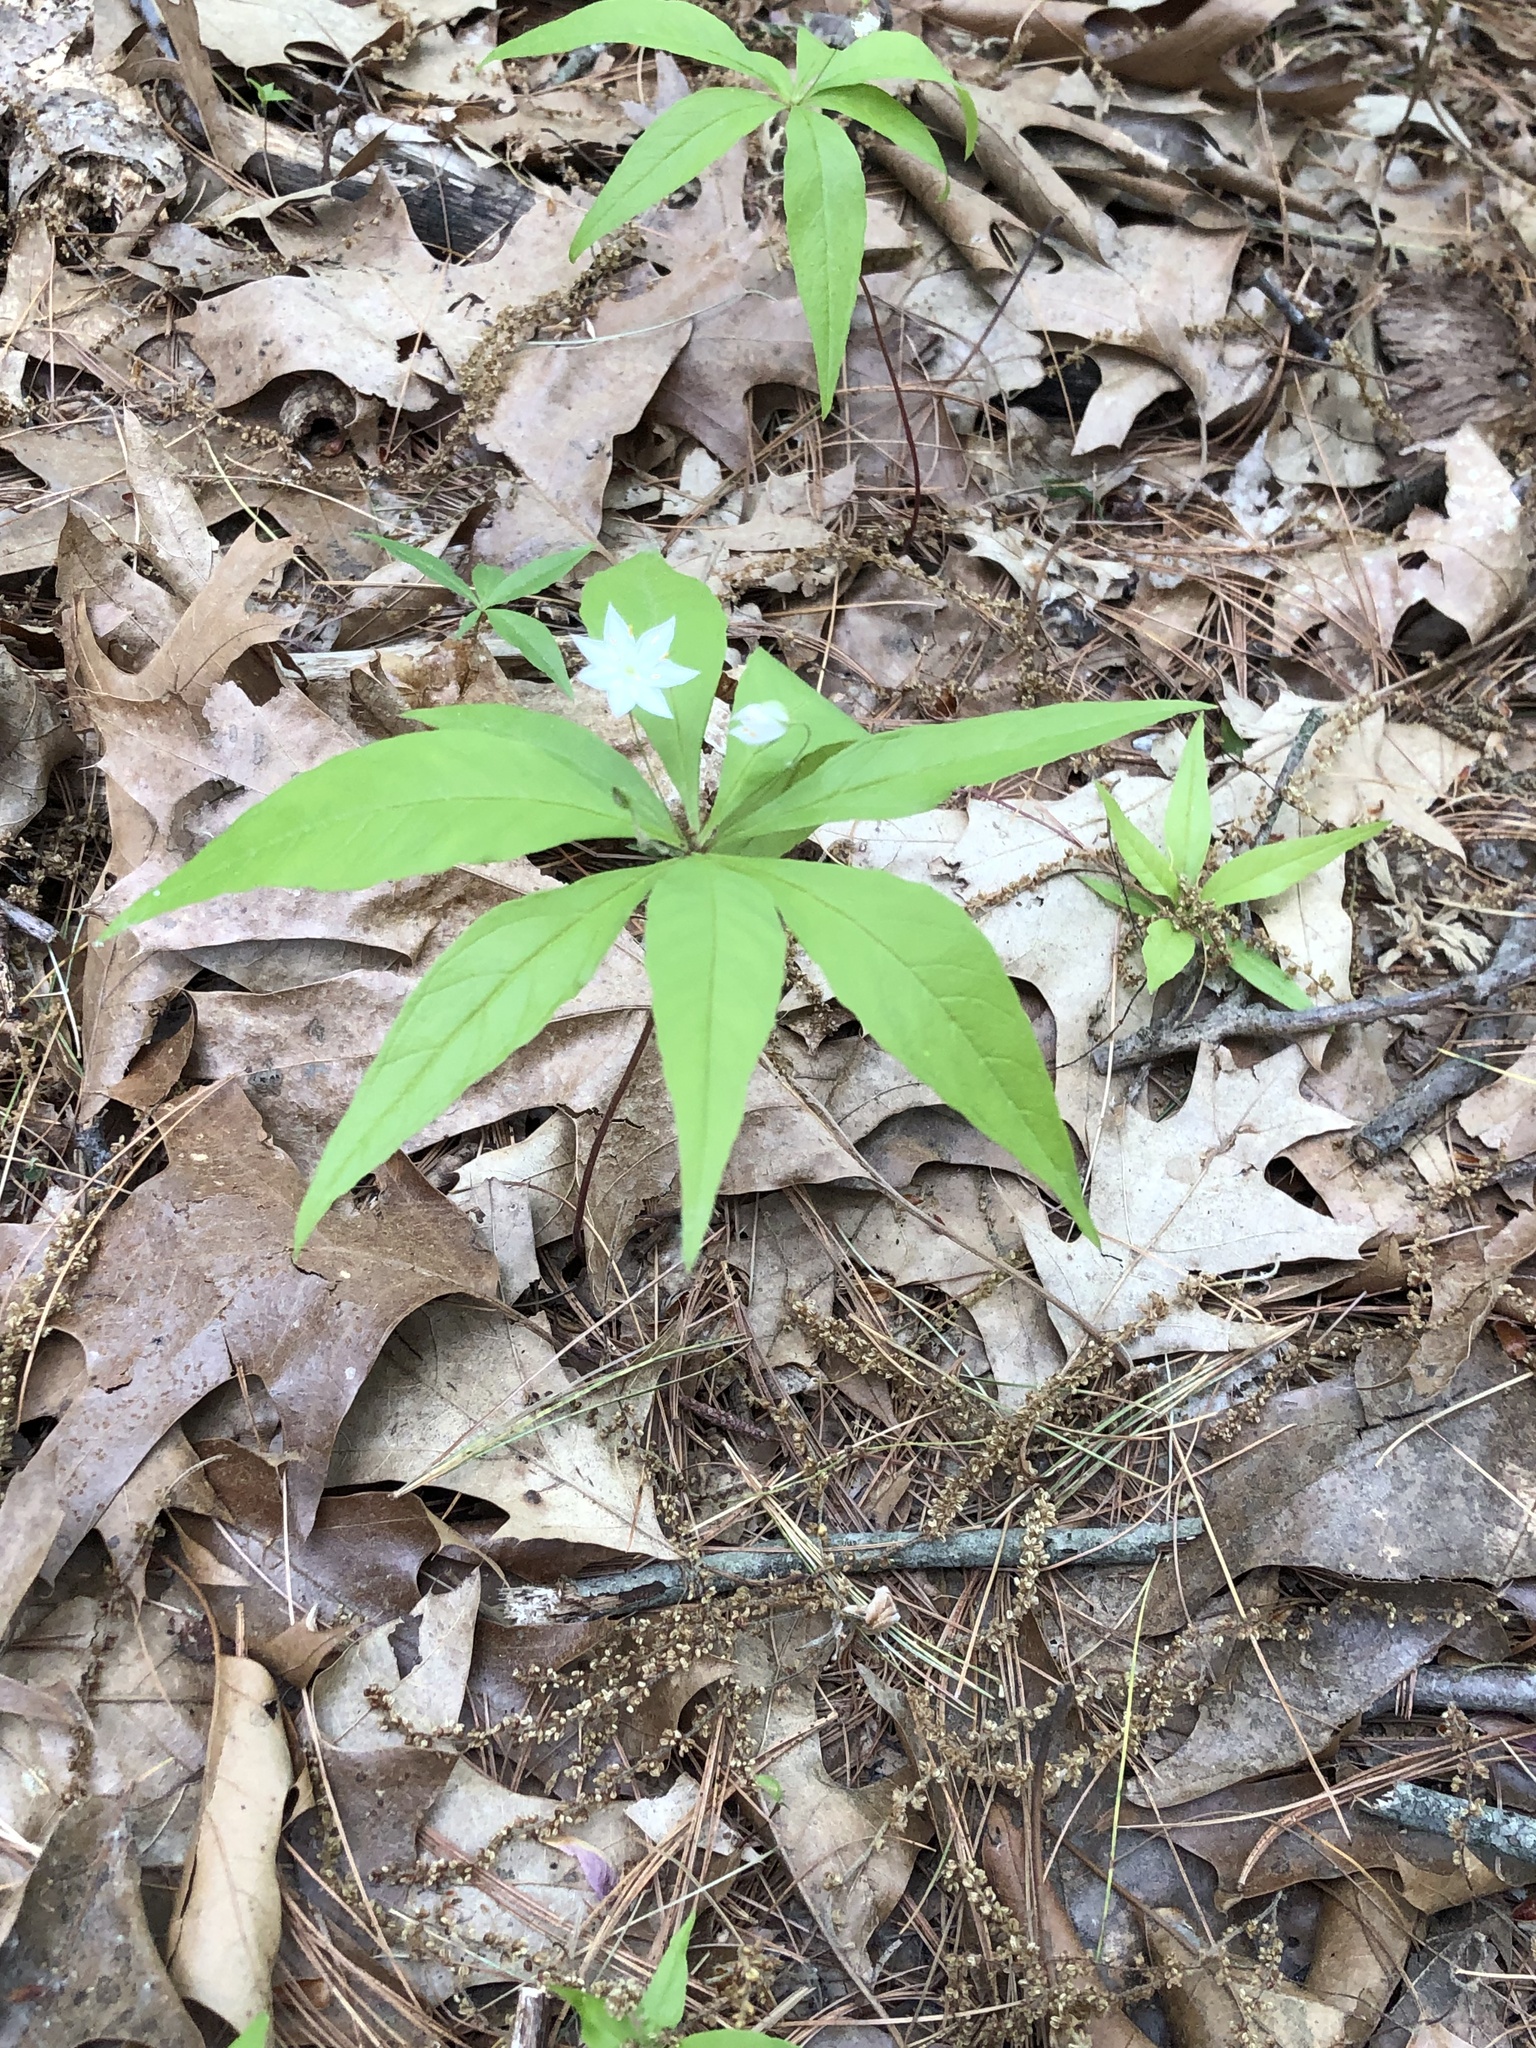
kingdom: Plantae
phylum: Tracheophyta
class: Magnoliopsida
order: Ericales
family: Primulaceae
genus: Lysimachia
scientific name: Lysimachia borealis
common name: American starflower
